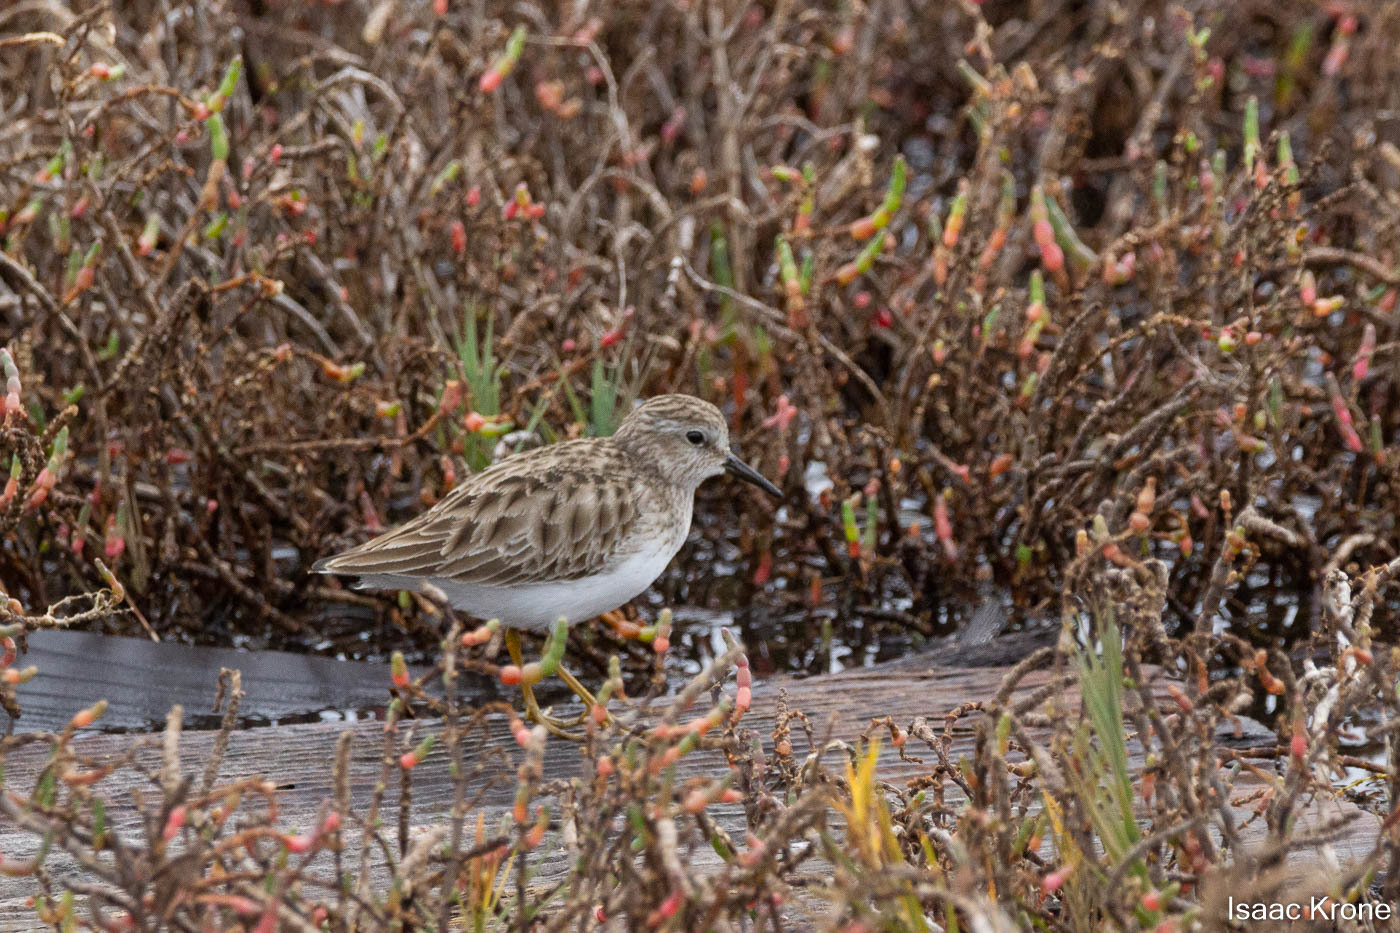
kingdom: Animalia
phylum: Chordata
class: Aves
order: Charadriiformes
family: Scolopacidae
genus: Calidris
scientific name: Calidris minutilla
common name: Least sandpiper
